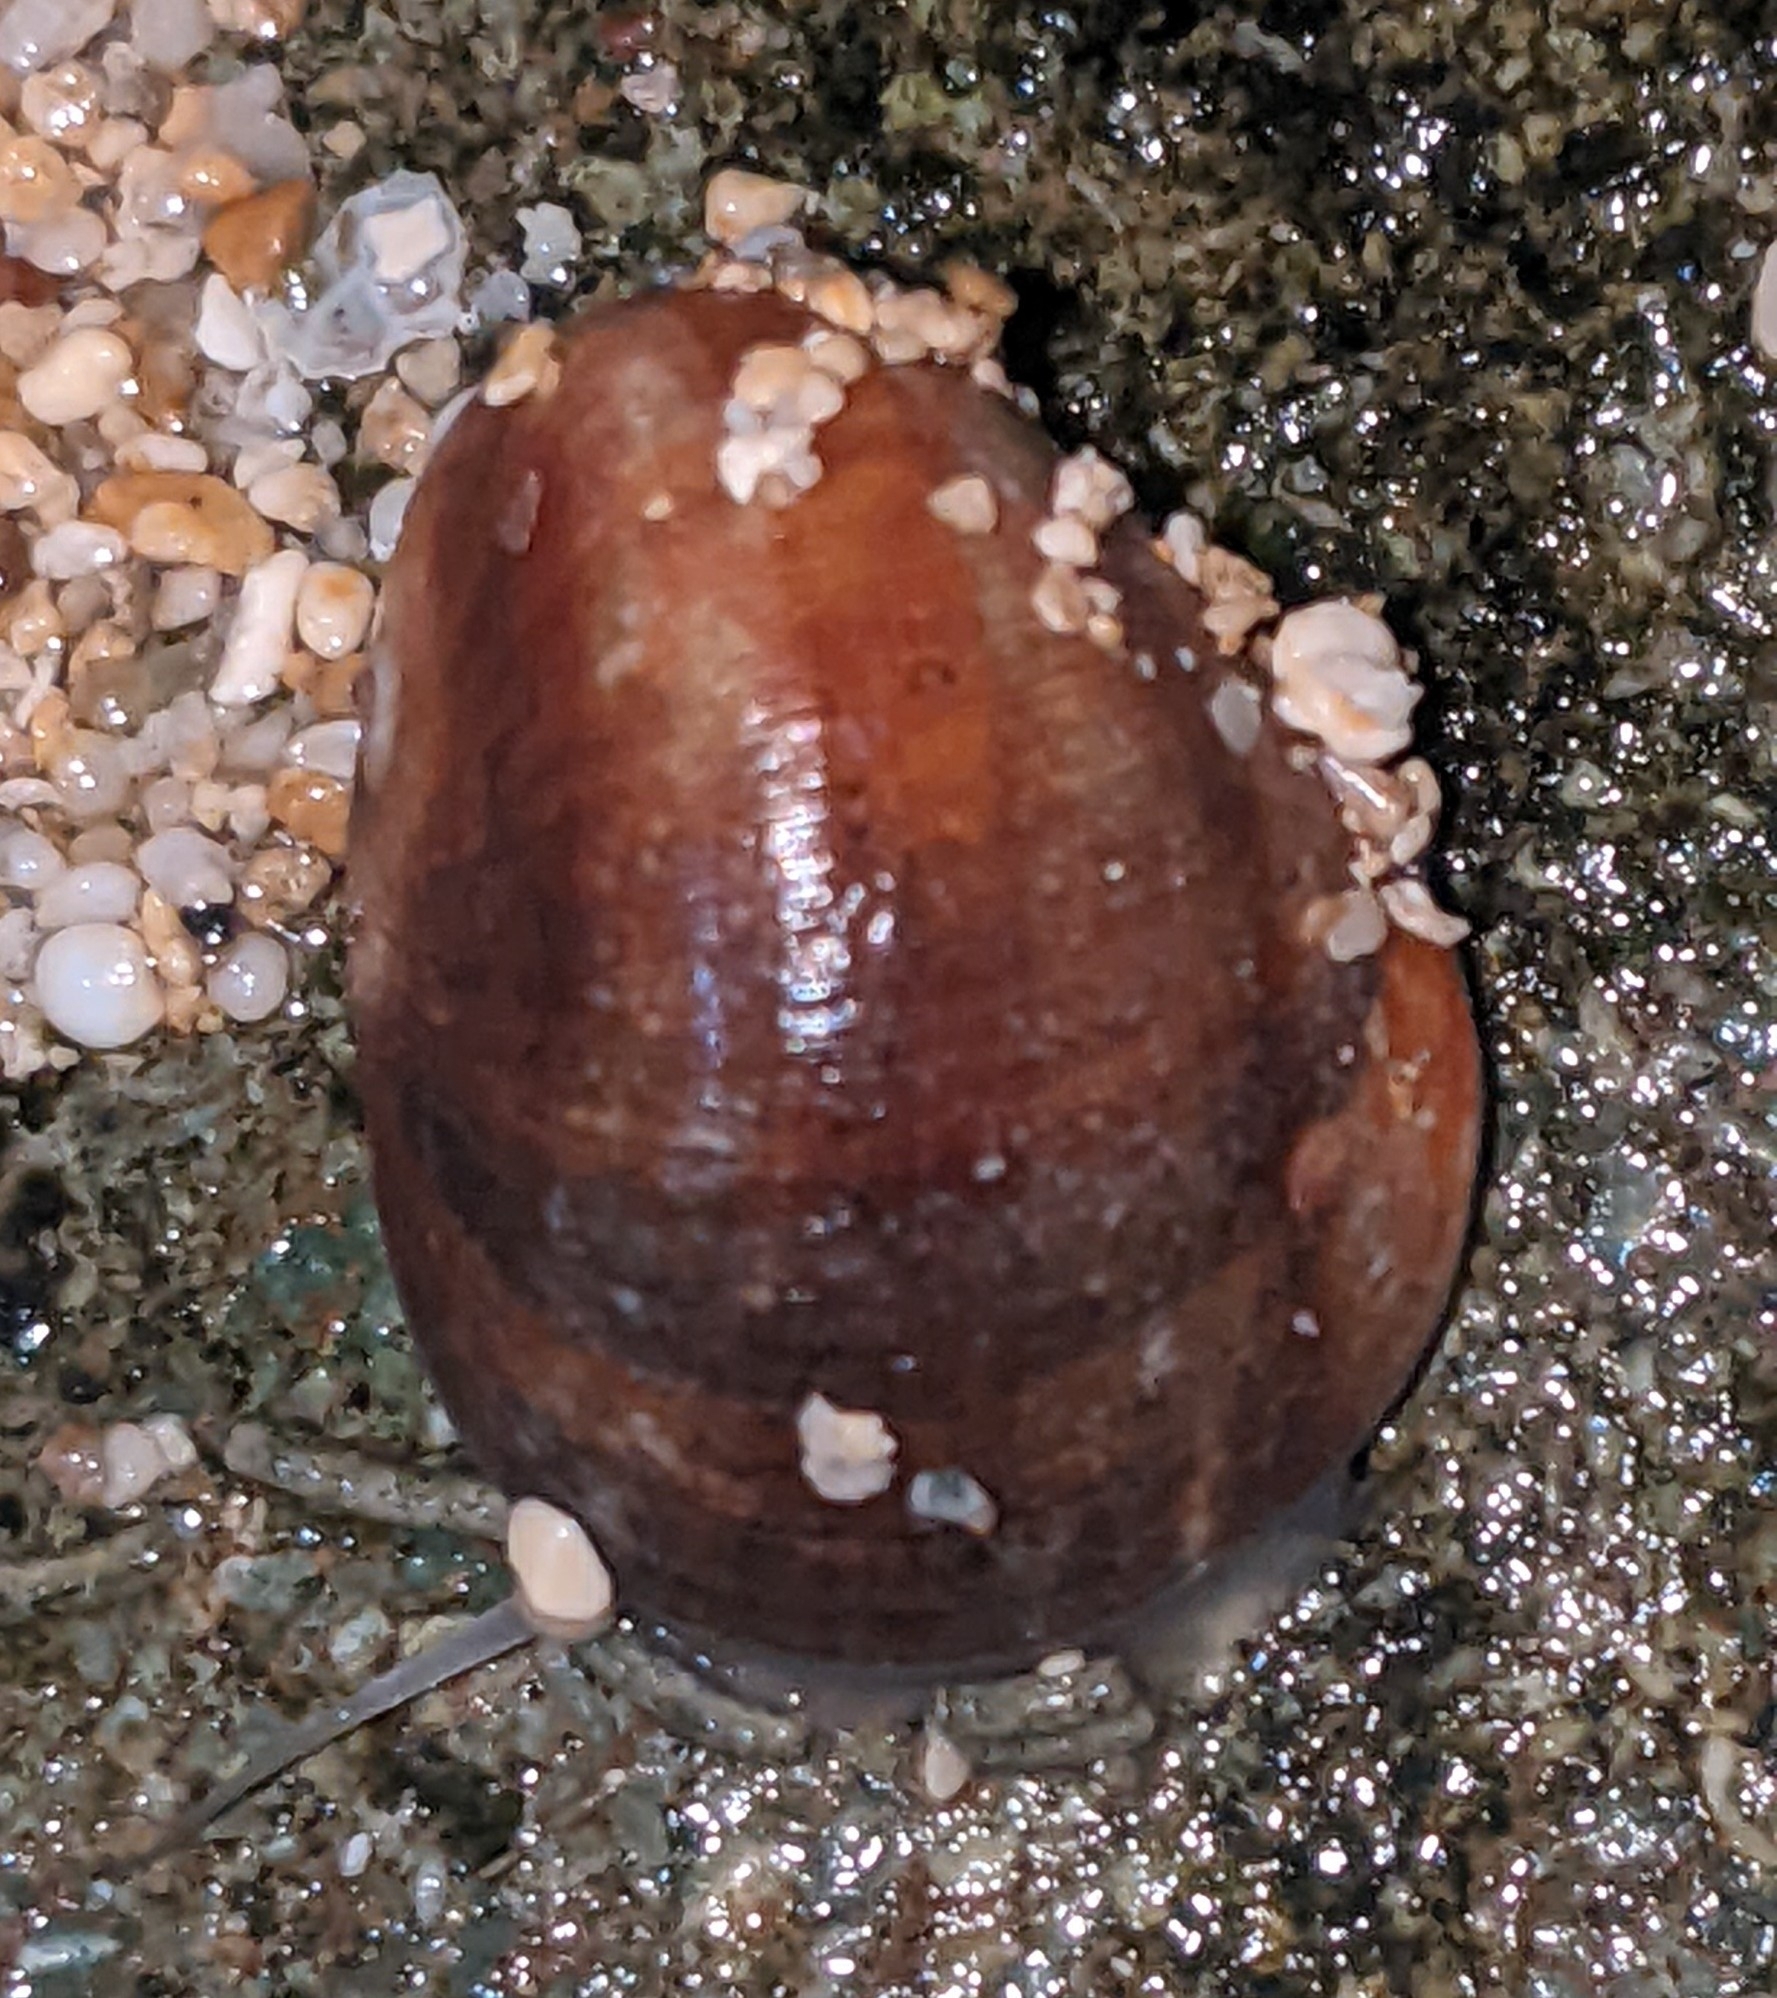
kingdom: Animalia
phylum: Mollusca
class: Gastropoda
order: Cycloneritida
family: Neritidae
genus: Nerita
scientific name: Nerita polita
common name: Polished nerite
